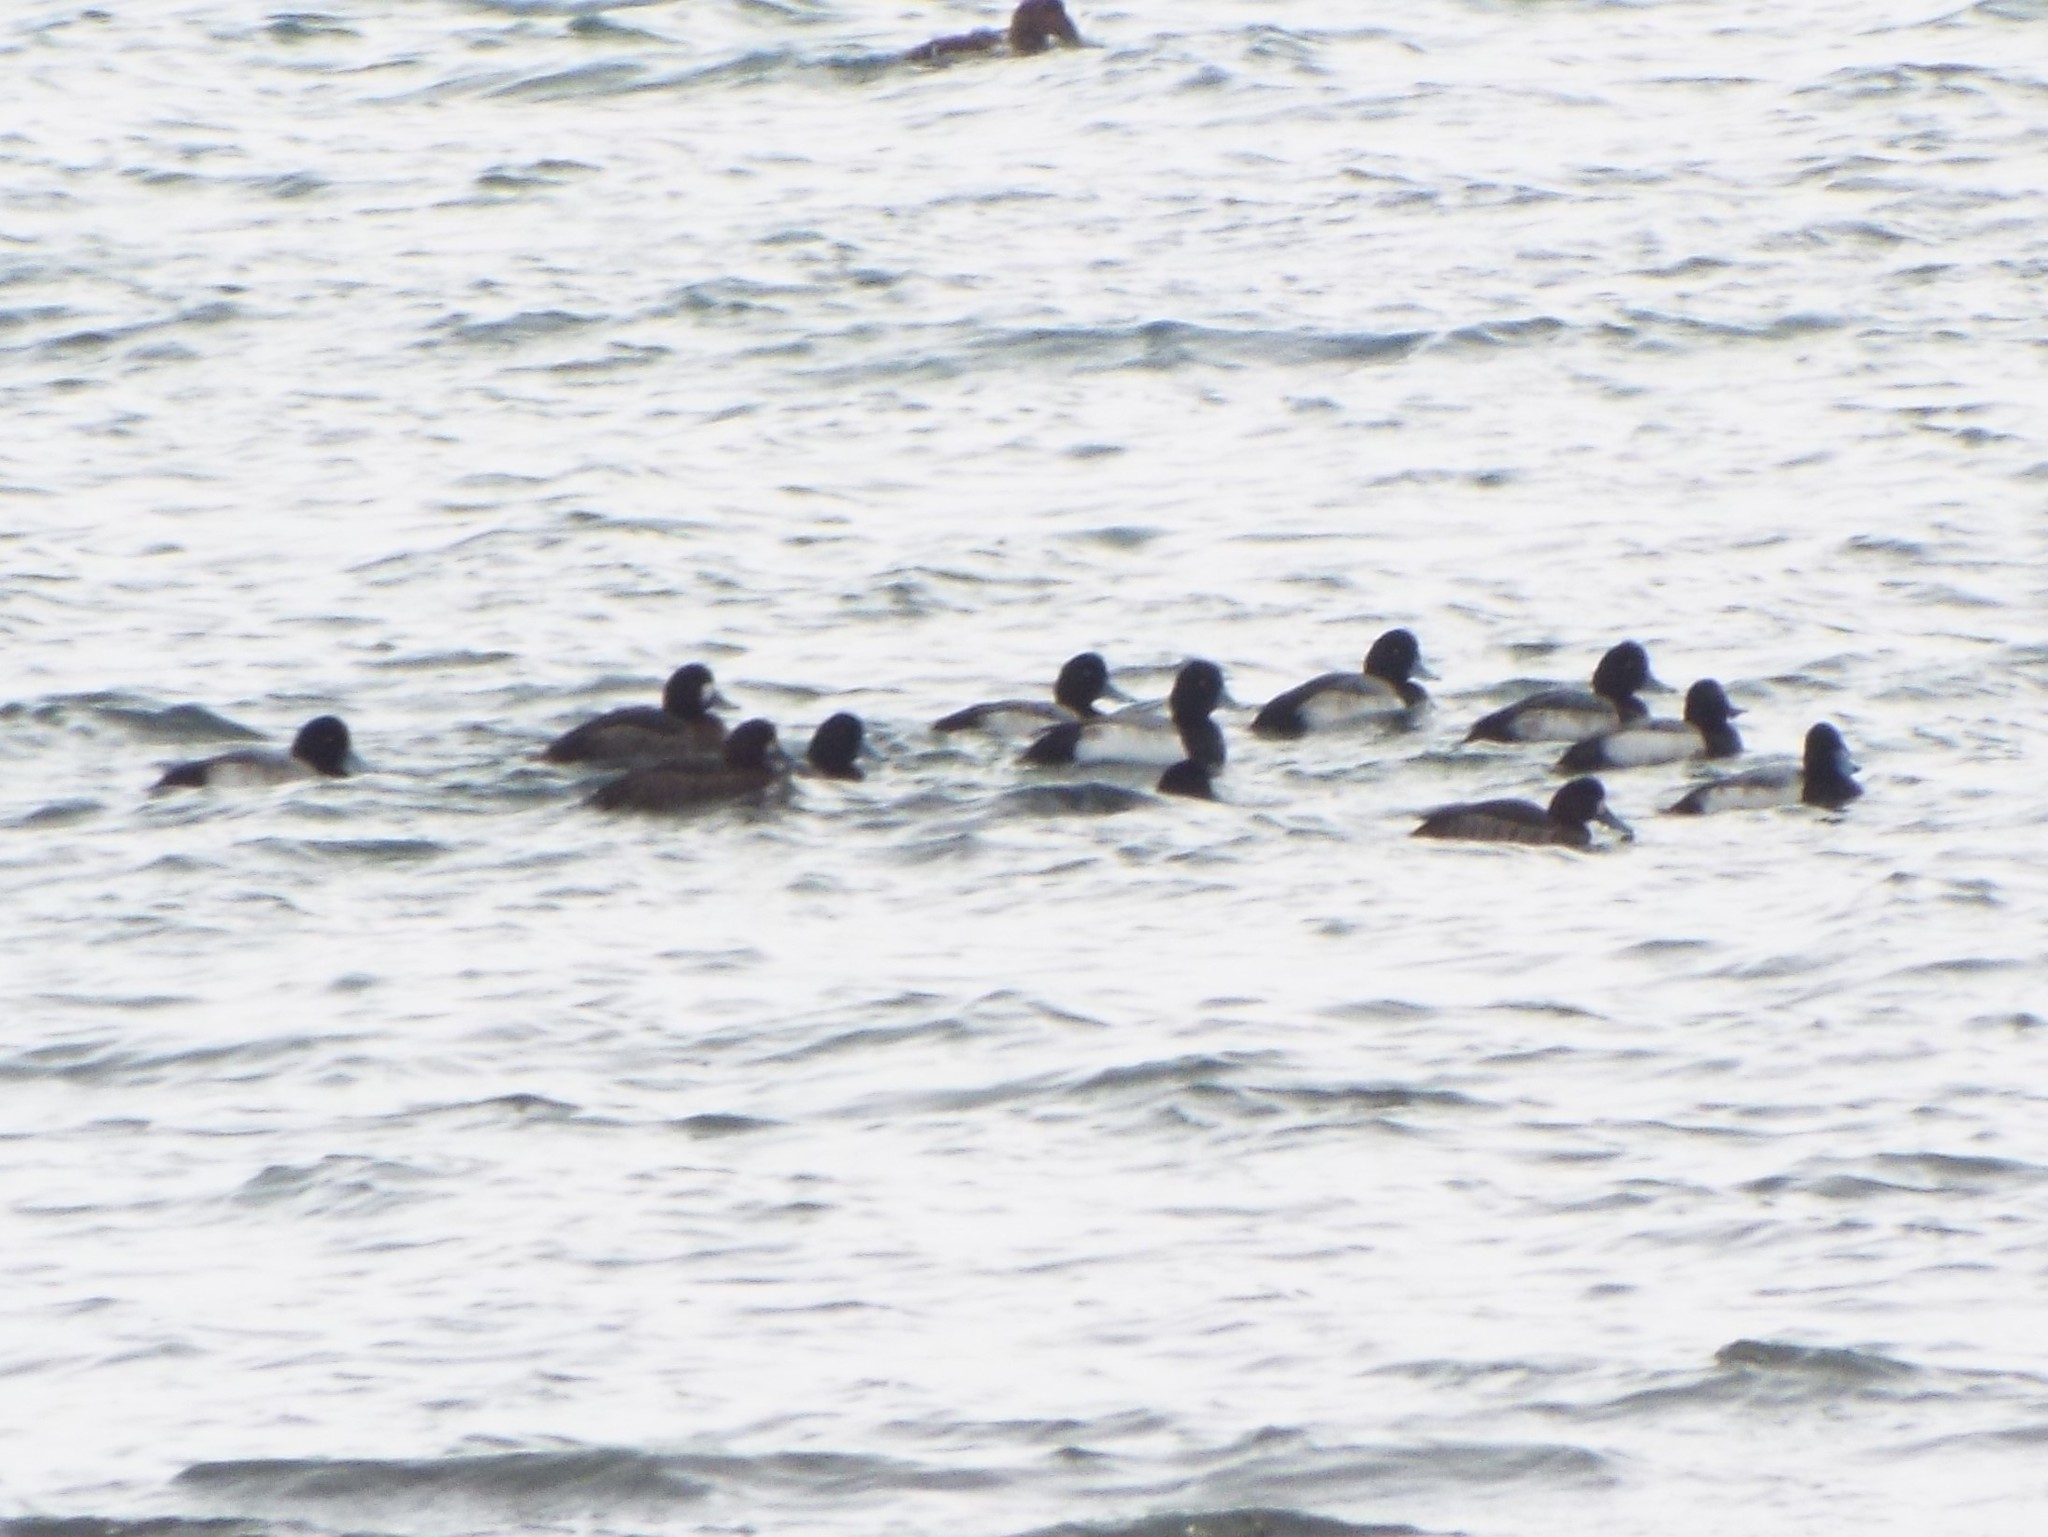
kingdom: Animalia
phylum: Chordata
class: Aves
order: Anseriformes
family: Anatidae
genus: Aythya
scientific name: Aythya marila
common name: Greater scaup
